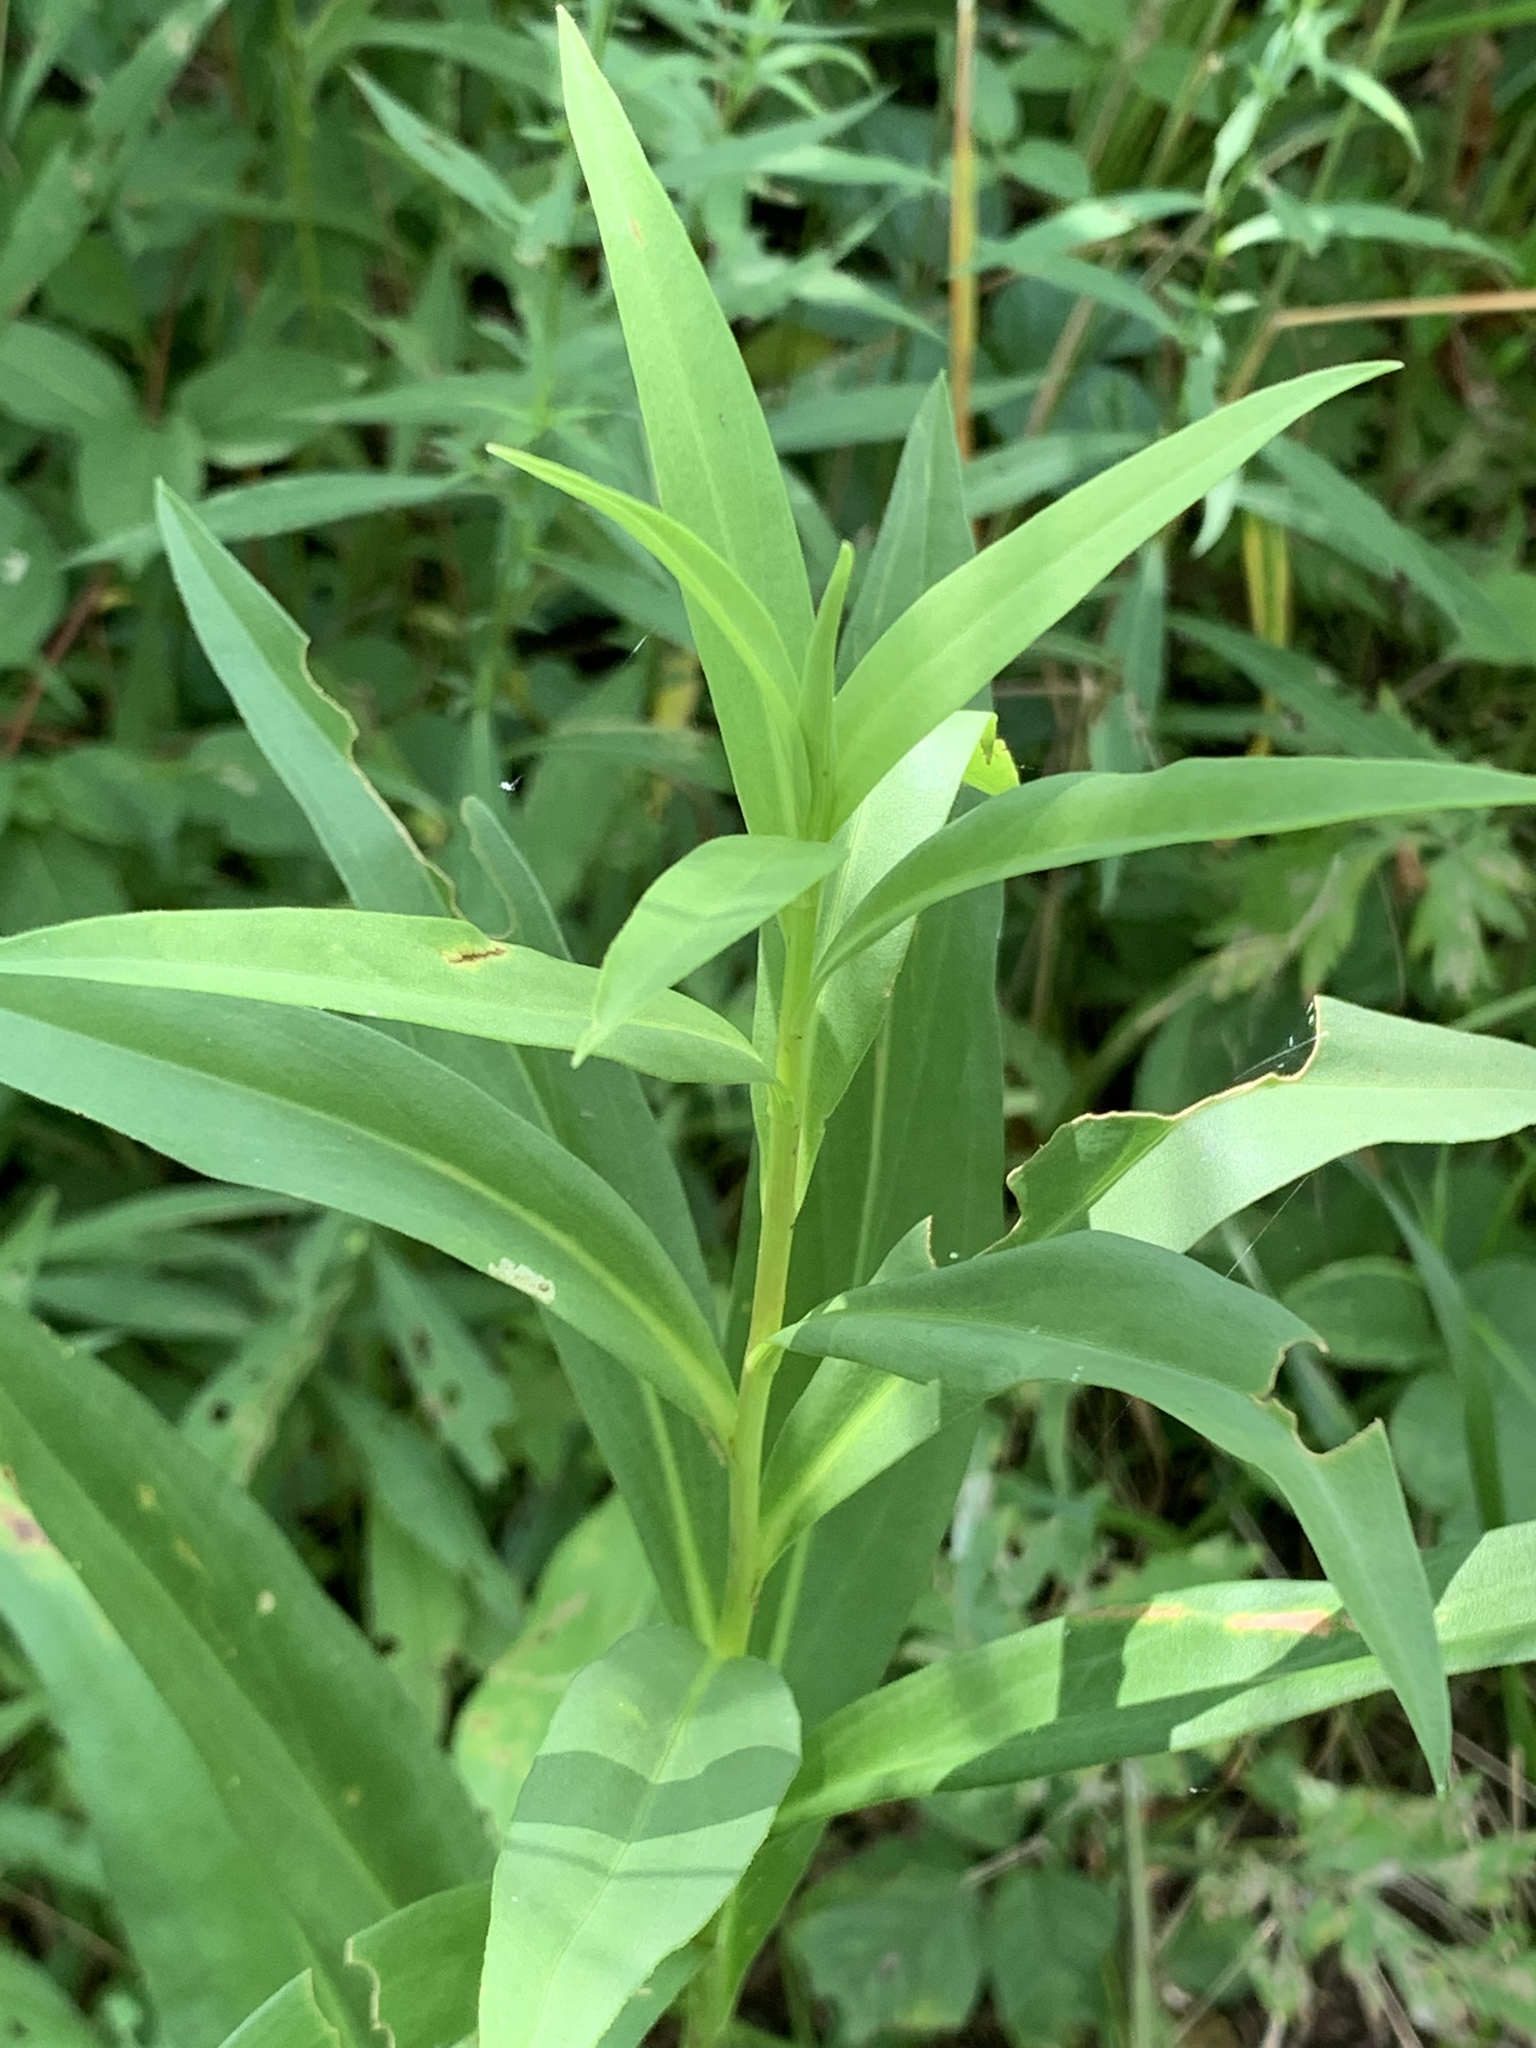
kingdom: Plantae
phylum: Tracheophyta
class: Magnoliopsida
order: Asterales
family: Asteraceae
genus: Solidago
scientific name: Solidago sempervirens
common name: Salt-marsh goldenrod
